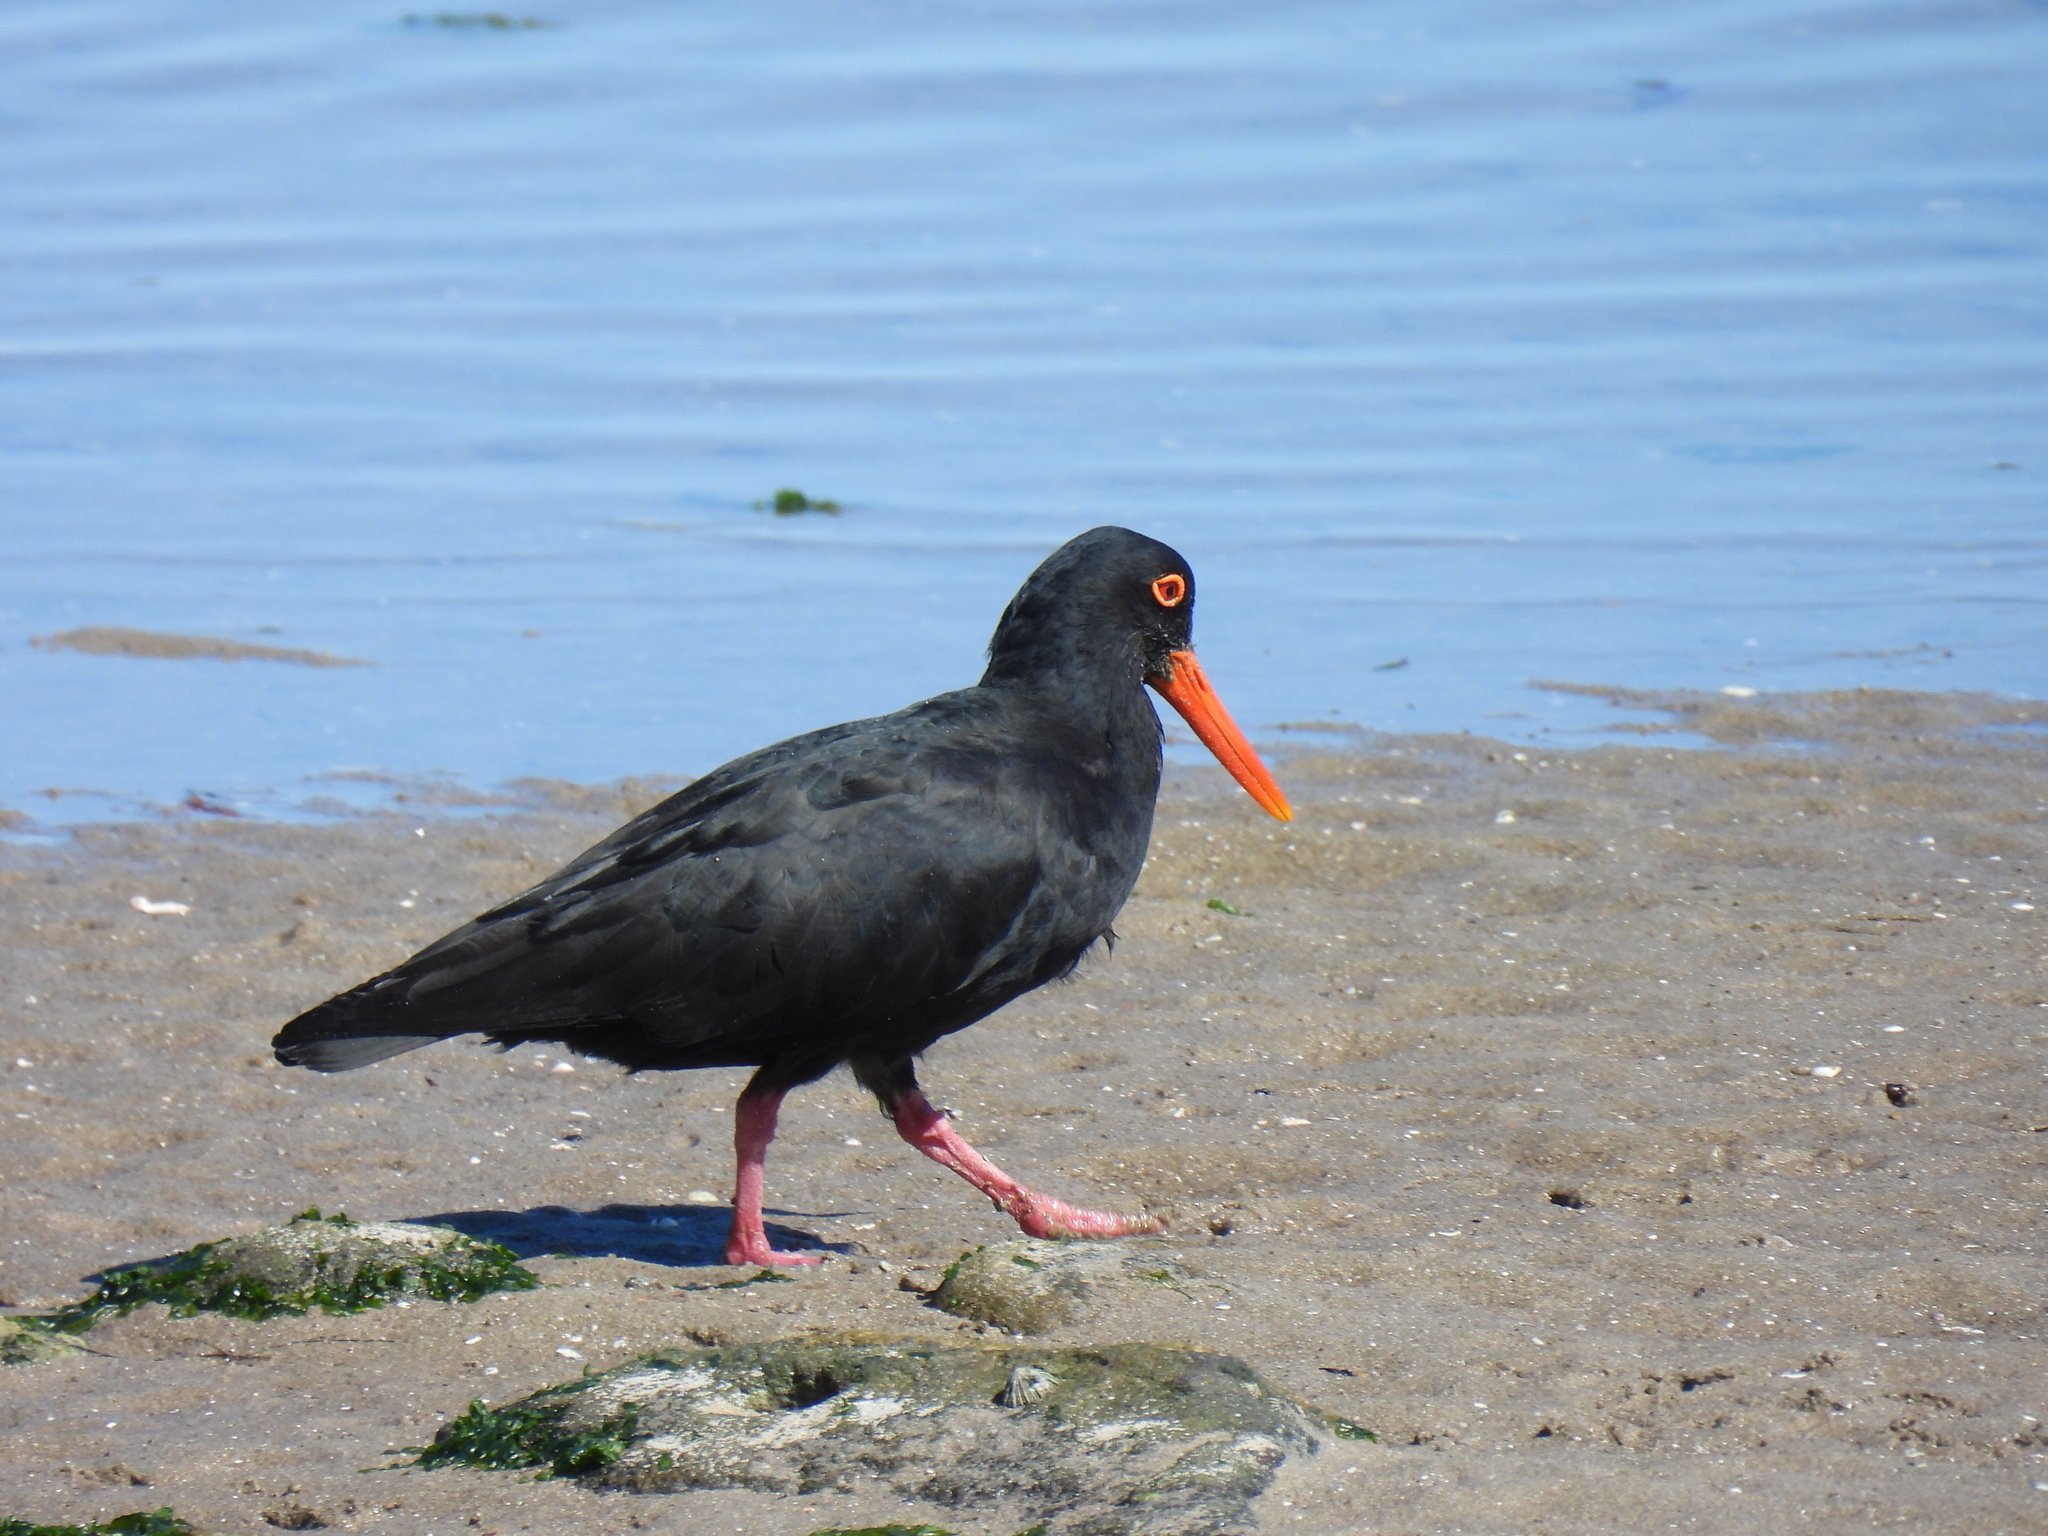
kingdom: Animalia
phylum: Chordata
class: Aves
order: Charadriiformes
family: Haematopodidae
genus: Haematopus
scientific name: Haematopus moquini
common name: African oystercatcher
